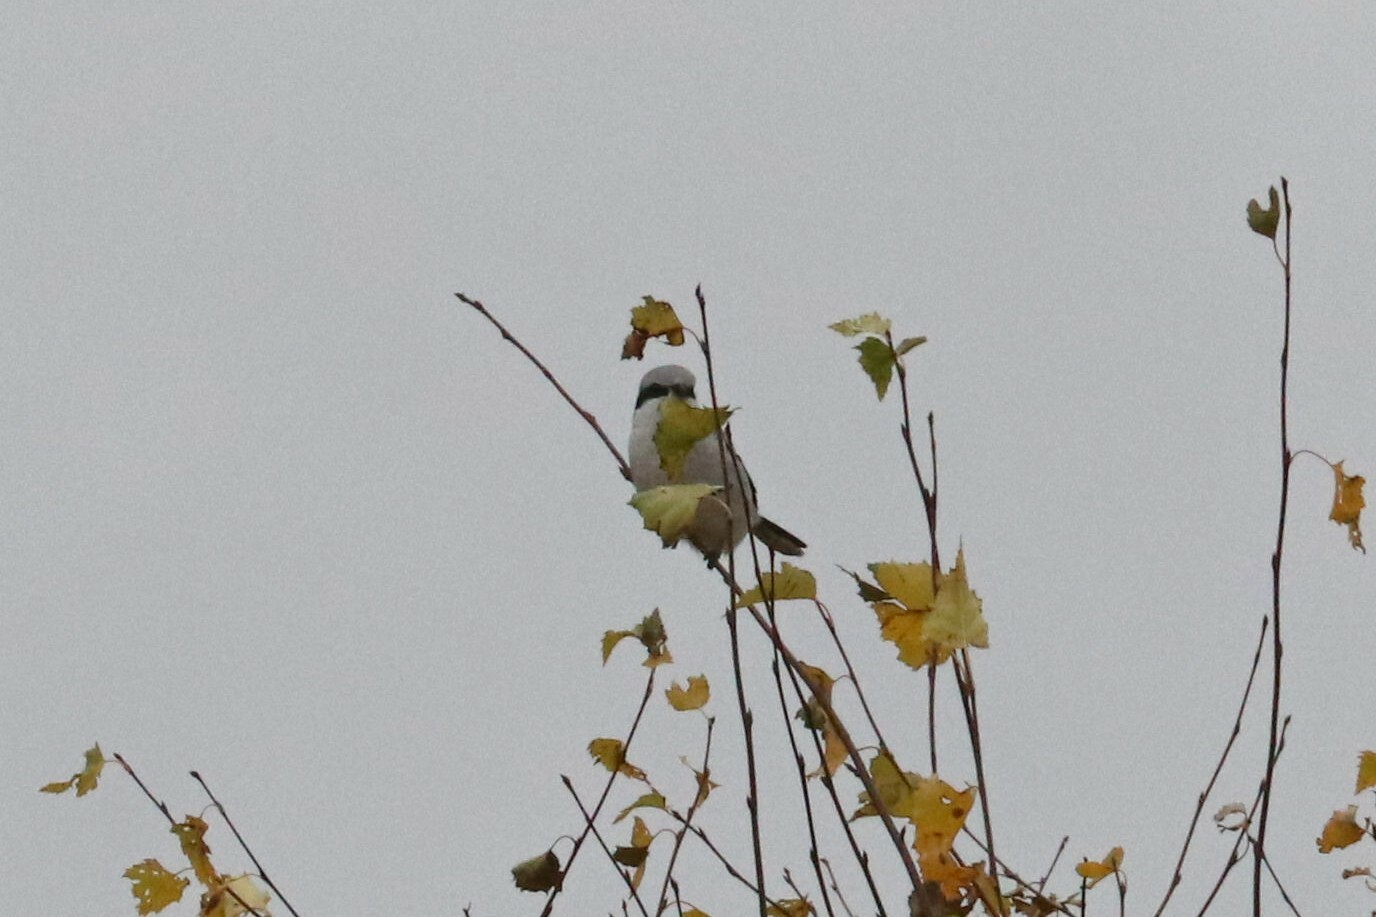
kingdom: Animalia
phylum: Chordata
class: Aves
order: Passeriformes
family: Laniidae
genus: Lanius
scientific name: Lanius excubitor
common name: Great grey shrike
